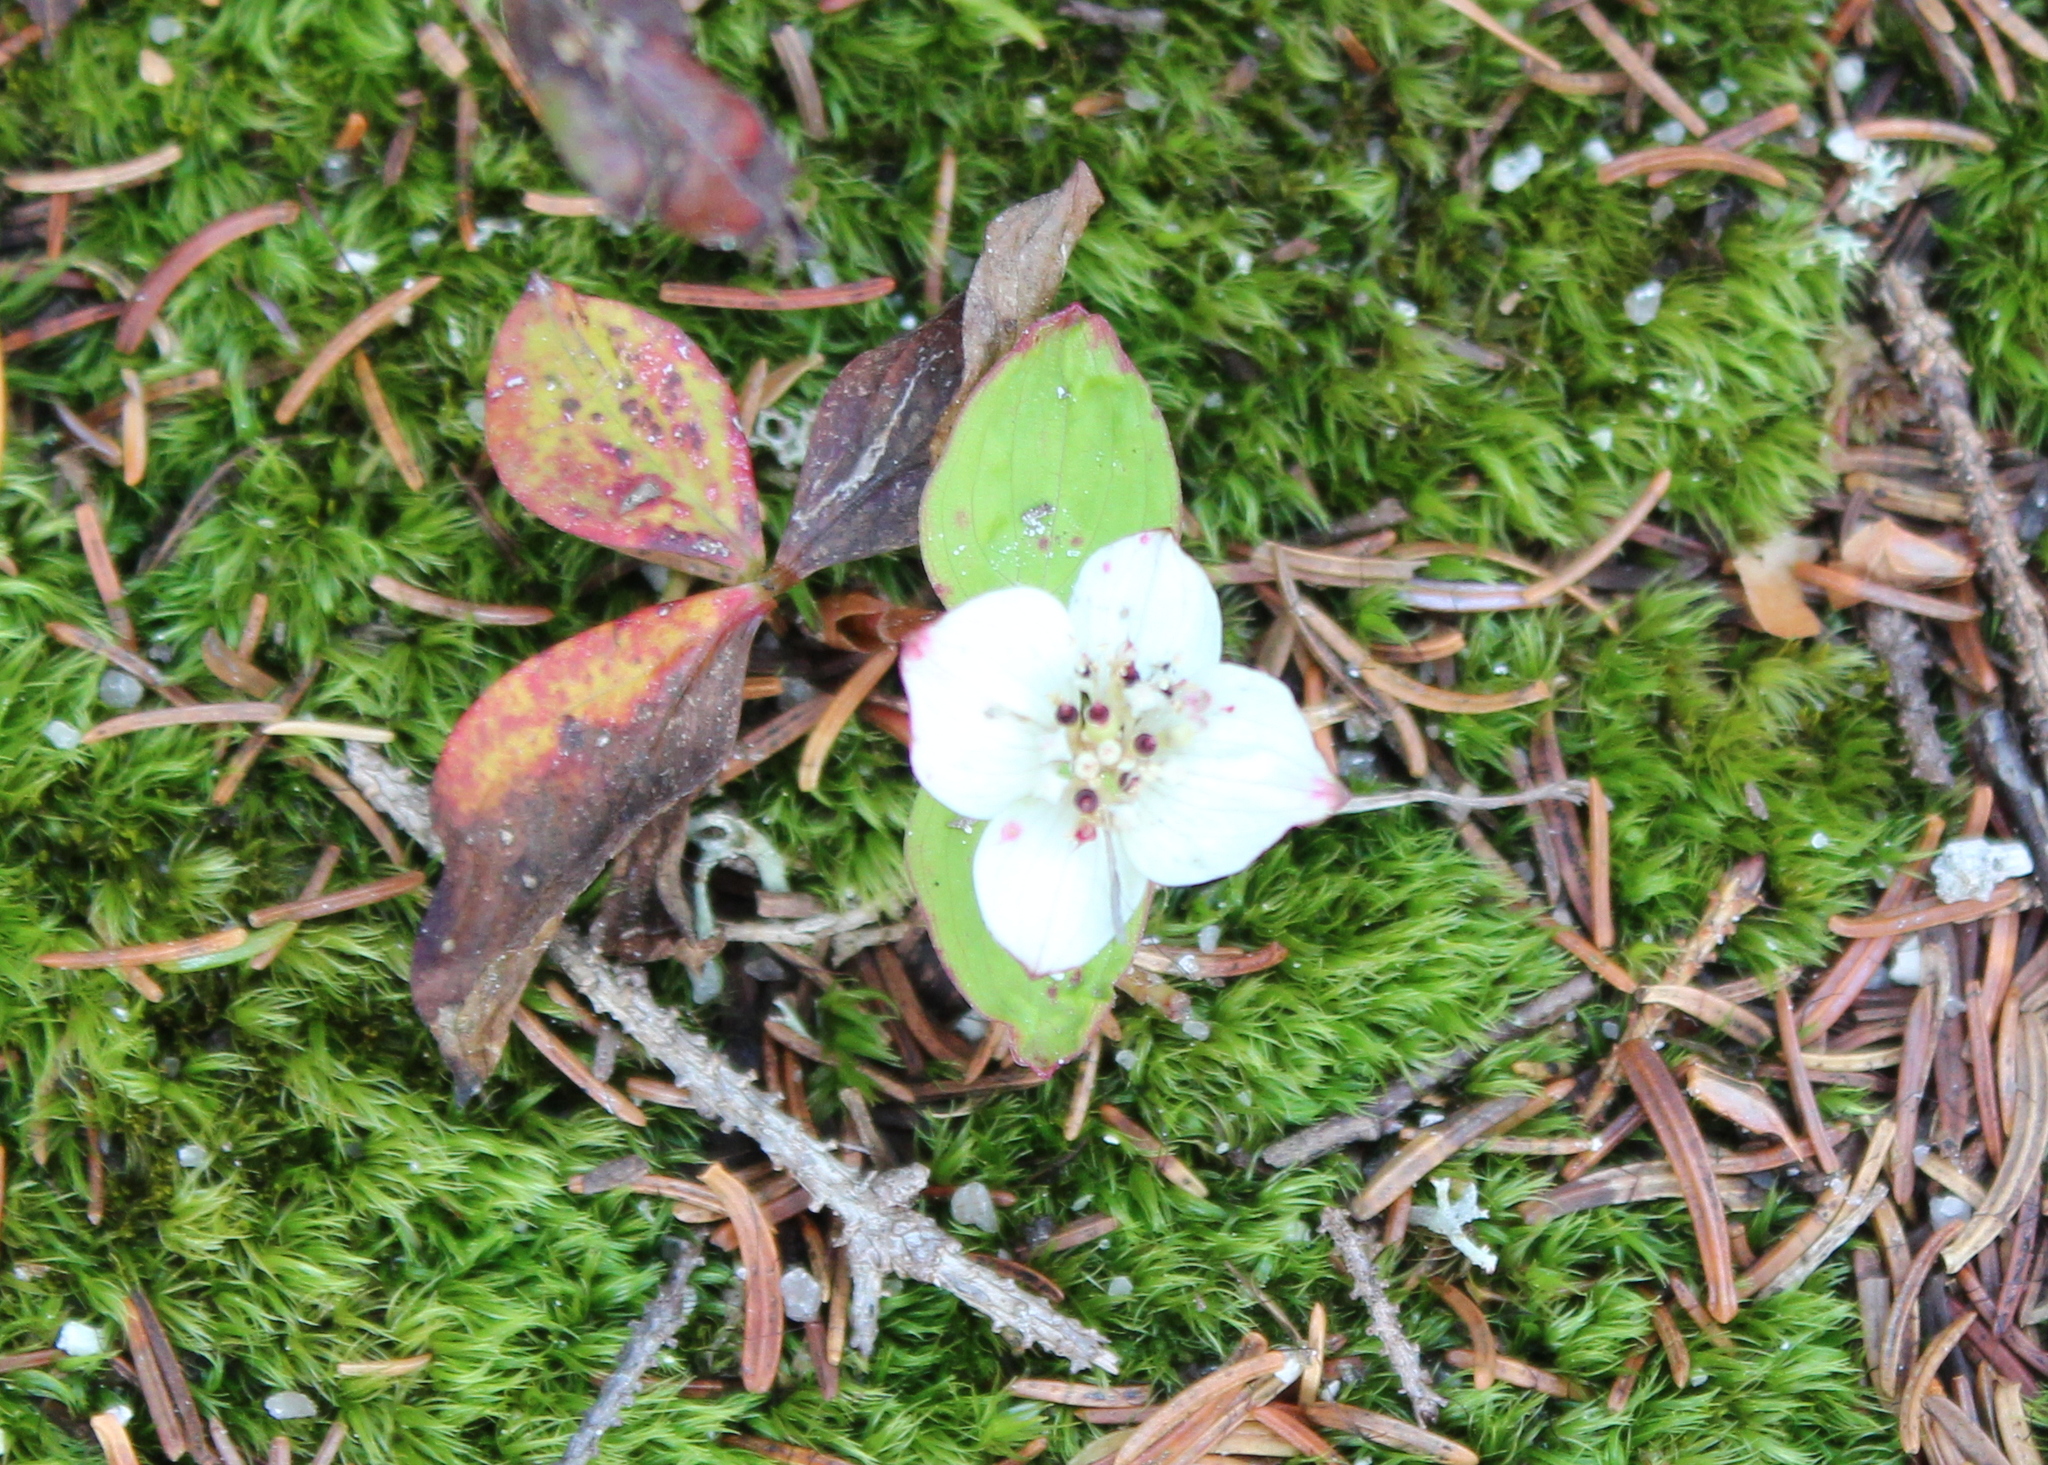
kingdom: Plantae
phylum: Tracheophyta
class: Magnoliopsida
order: Cornales
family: Cornaceae
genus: Cornus
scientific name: Cornus canadensis
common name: Creeping dogwood
